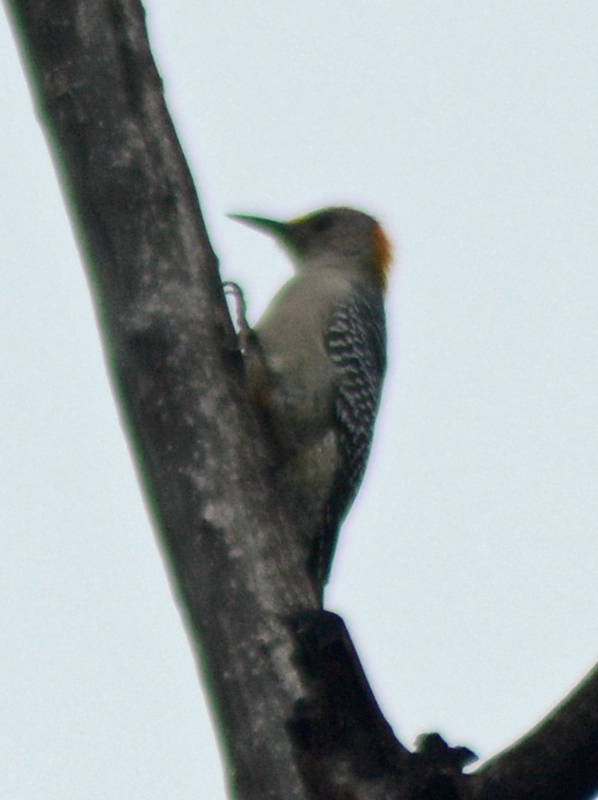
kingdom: Animalia
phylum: Chordata
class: Aves
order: Piciformes
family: Picidae
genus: Melanerpes
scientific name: Melanerpes aurifrons
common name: Golden-fronted woodpecker
